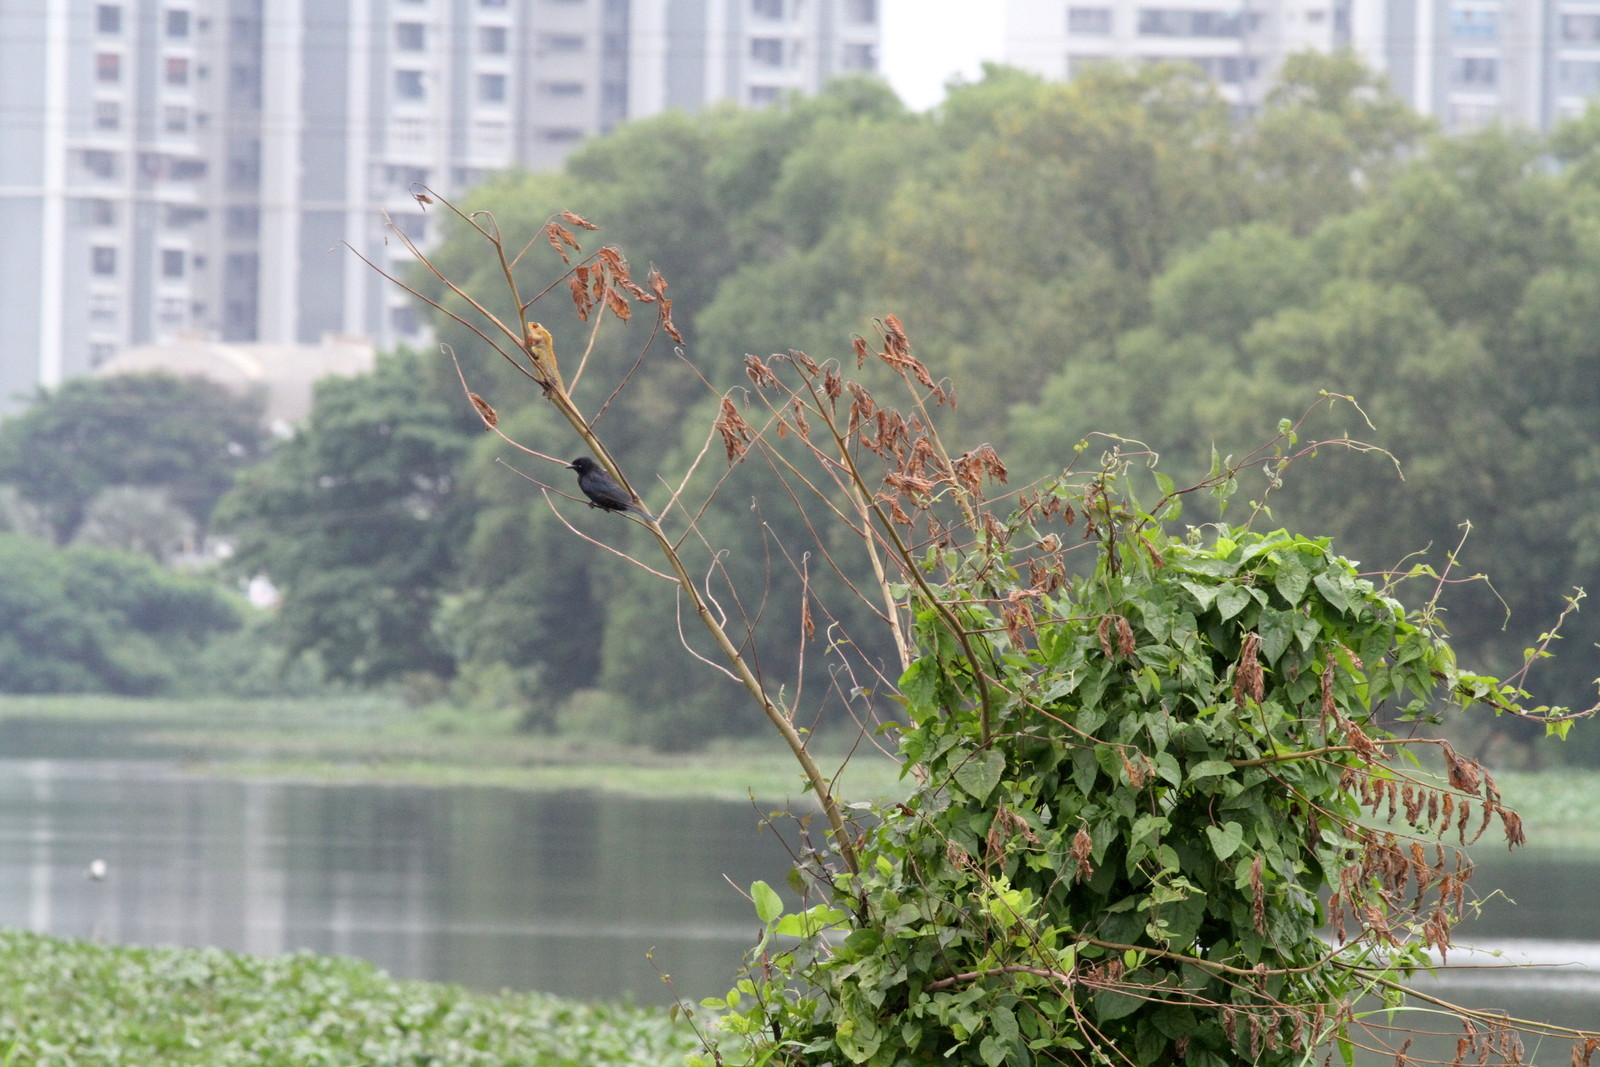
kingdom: Animalia
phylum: Chordata
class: Aves
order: Passeriformes
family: Dicruridae
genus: Dicrurus
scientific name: Dicrurus macrocercus
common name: Black drongo
